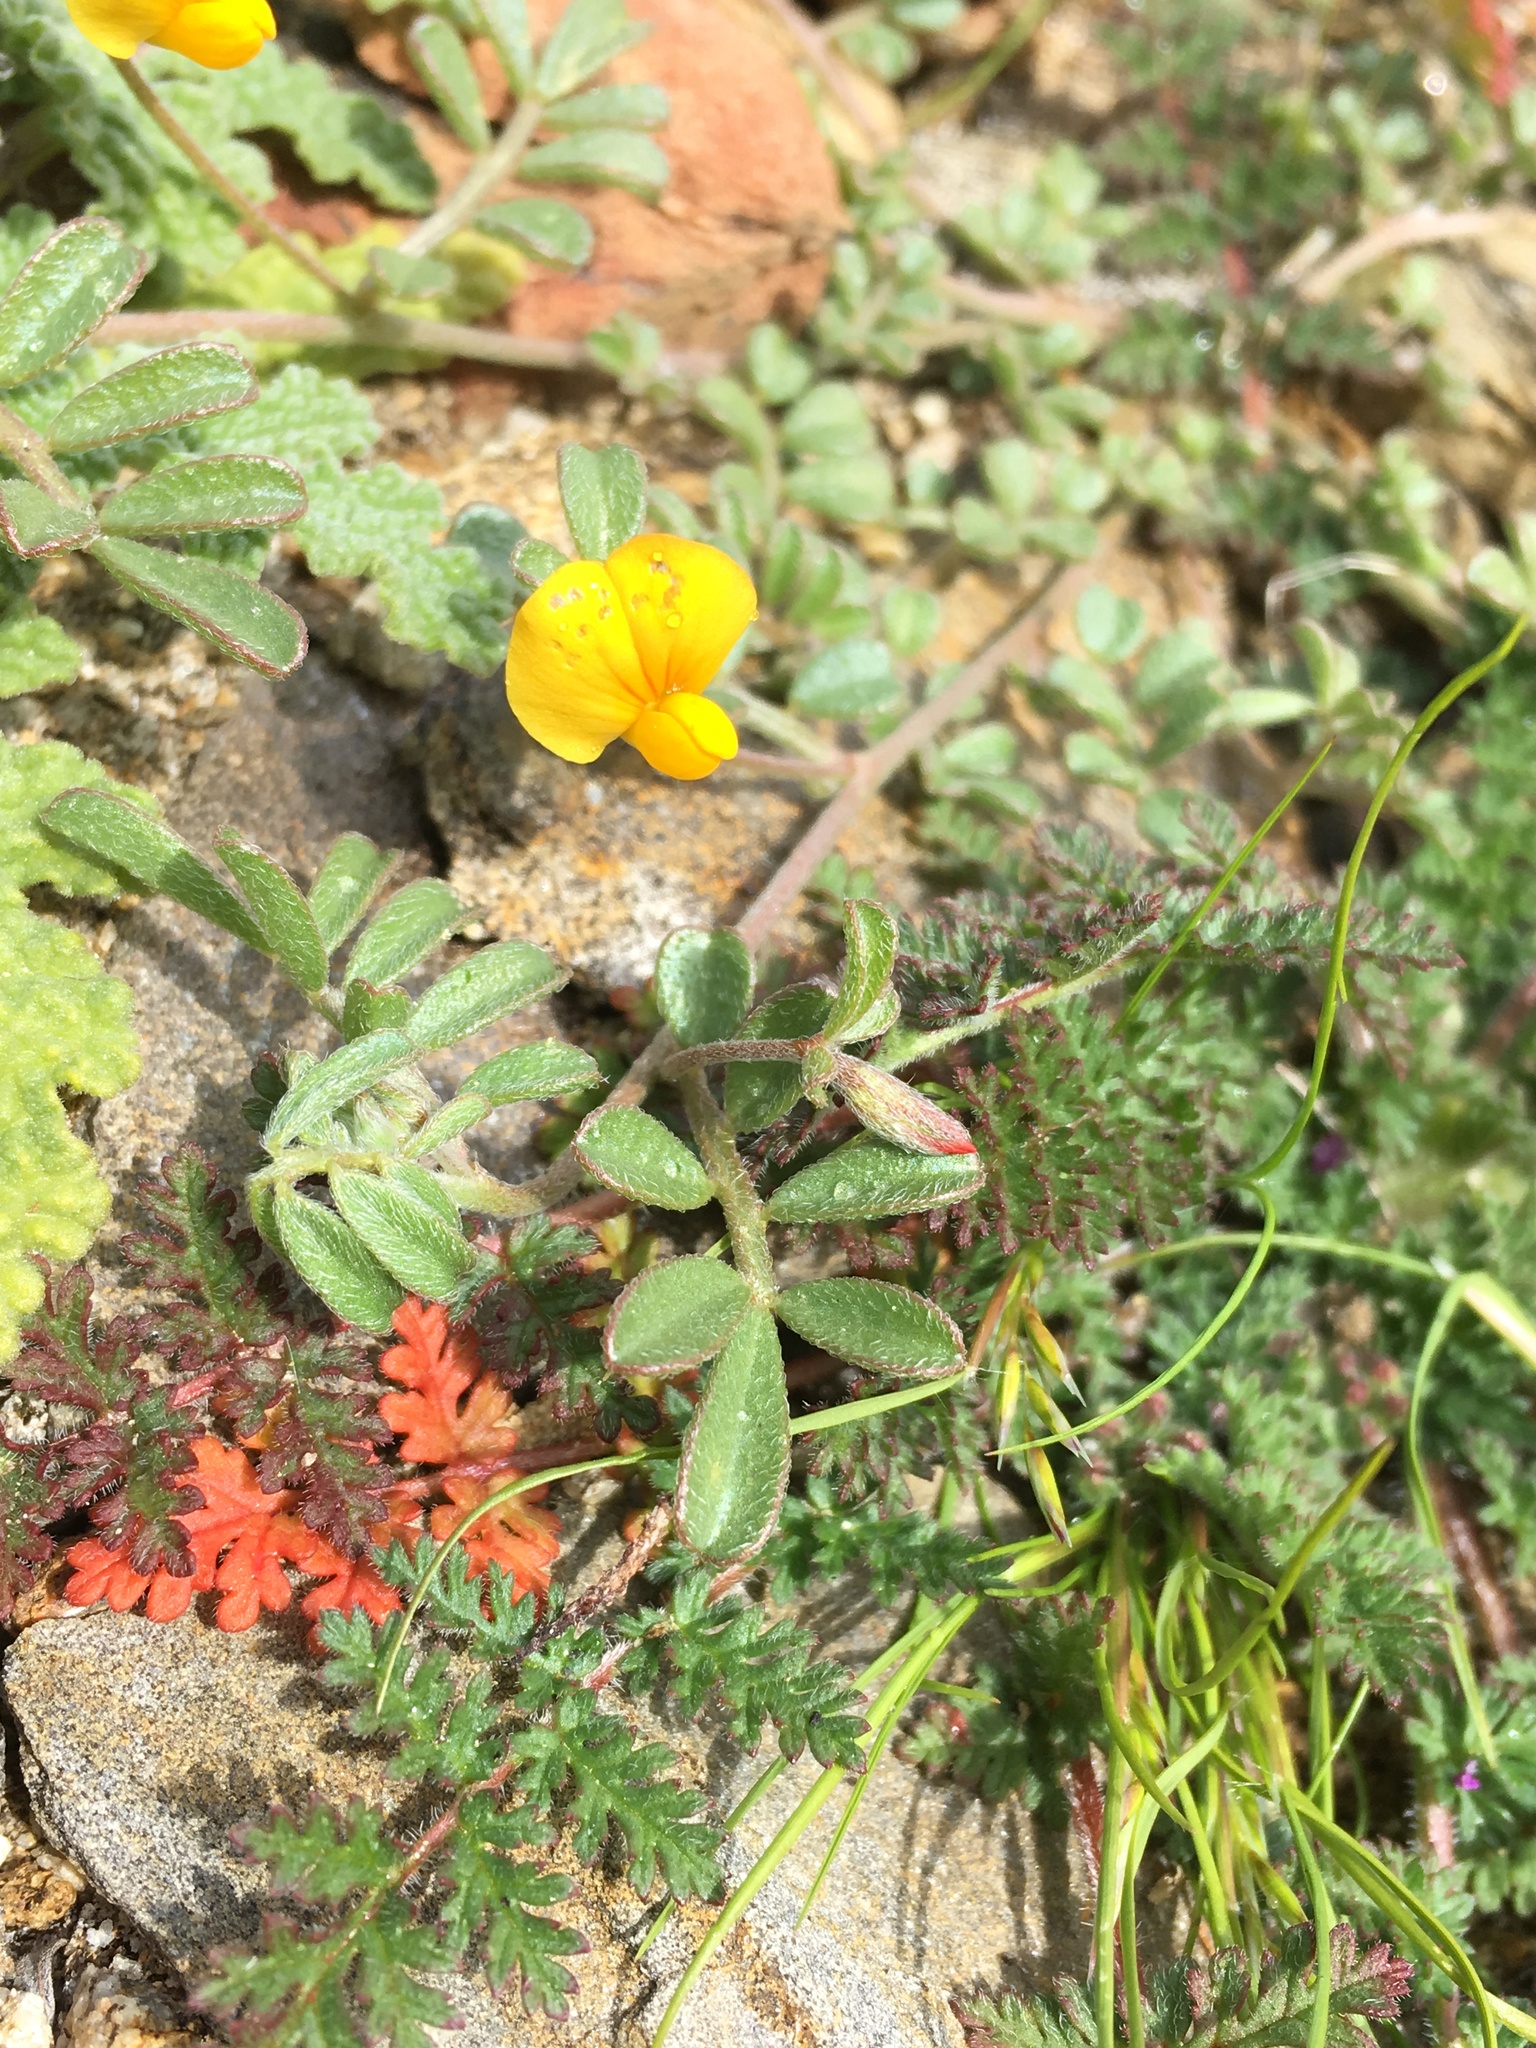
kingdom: Plantae
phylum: Tracheophyta
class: Magnoliopsida
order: Fabales
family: Fabaceae
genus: Acmispon
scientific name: Acmispon strigosus
